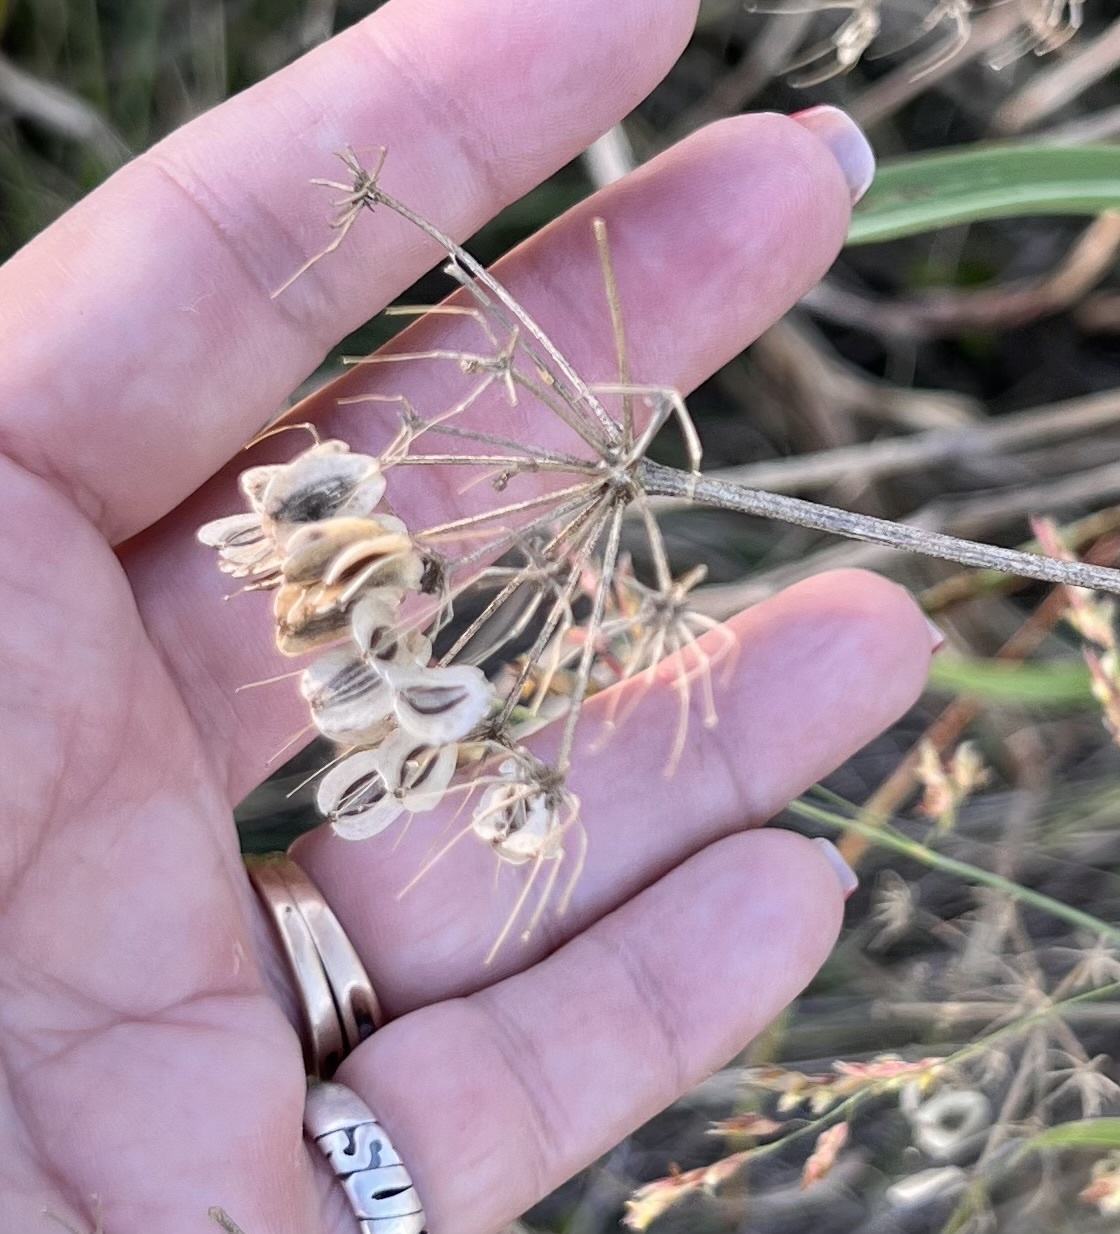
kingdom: Plantae
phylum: Tracheophyta
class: Magnoliopsida
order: Apiales
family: Apiaceae
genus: Polytaenia
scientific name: Polytaenia texana
